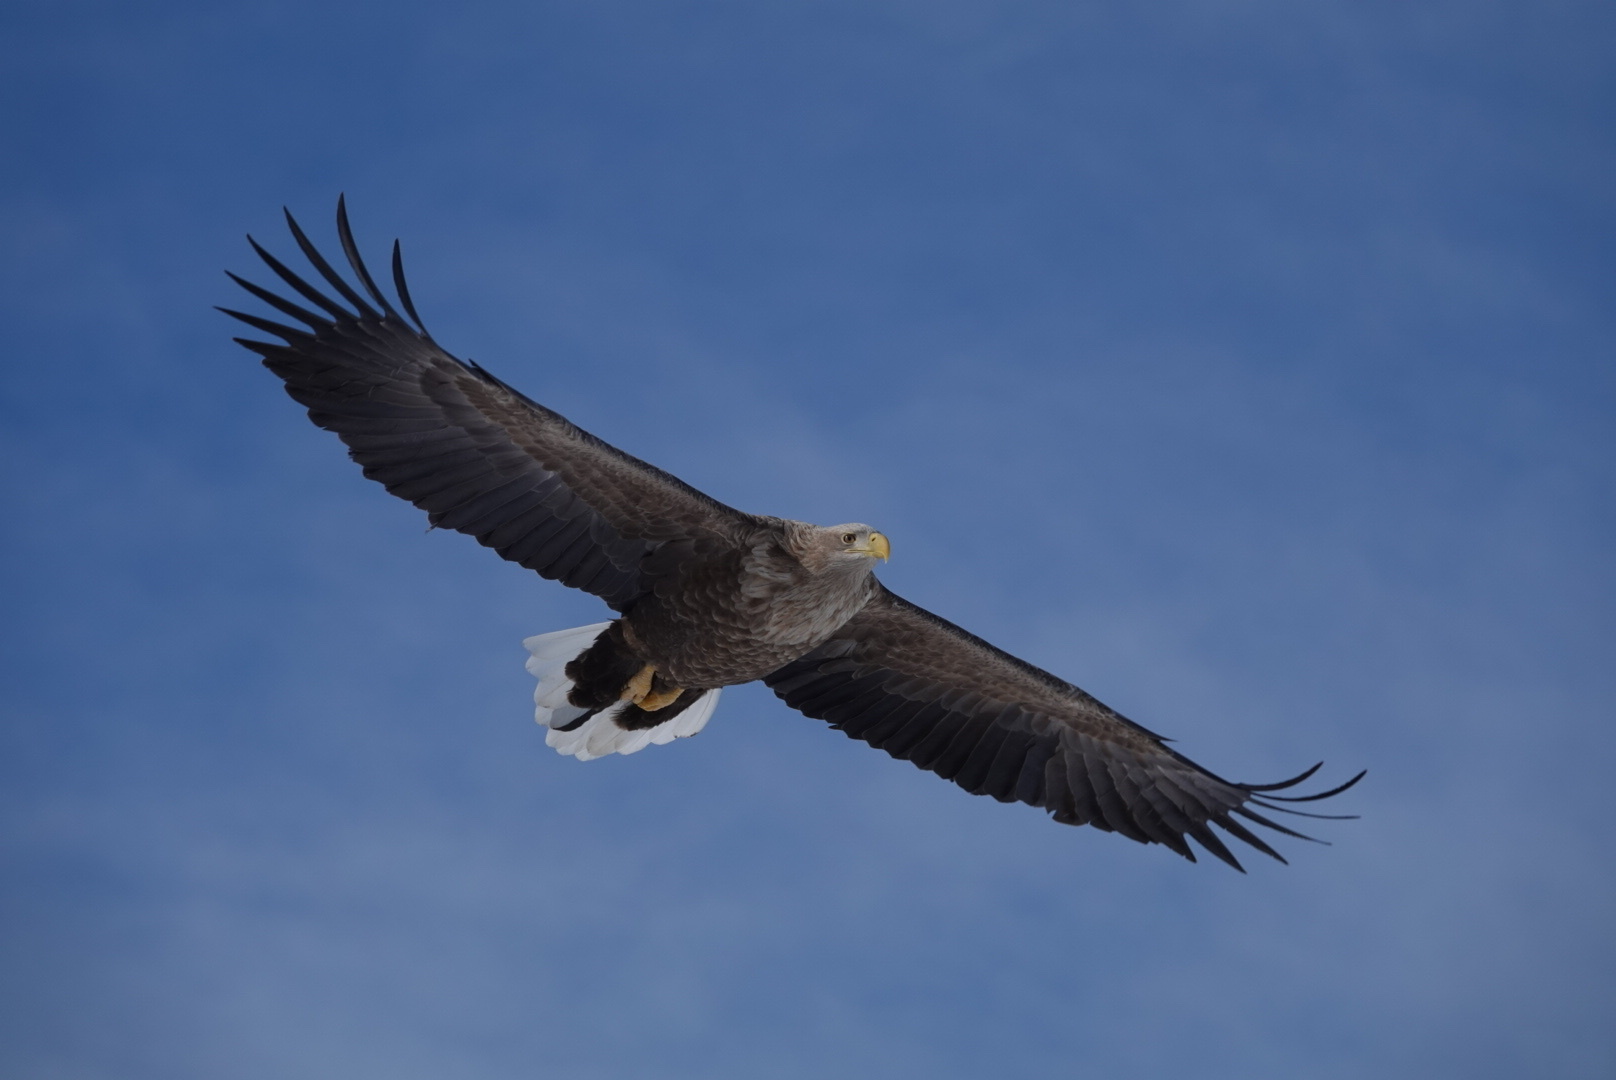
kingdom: Animalia
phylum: Chordata
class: Aves
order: Accipitriformes
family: Accipitridae
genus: Haliaeetus
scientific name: Haliaeetus albicilla
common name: White-tailed eagle
